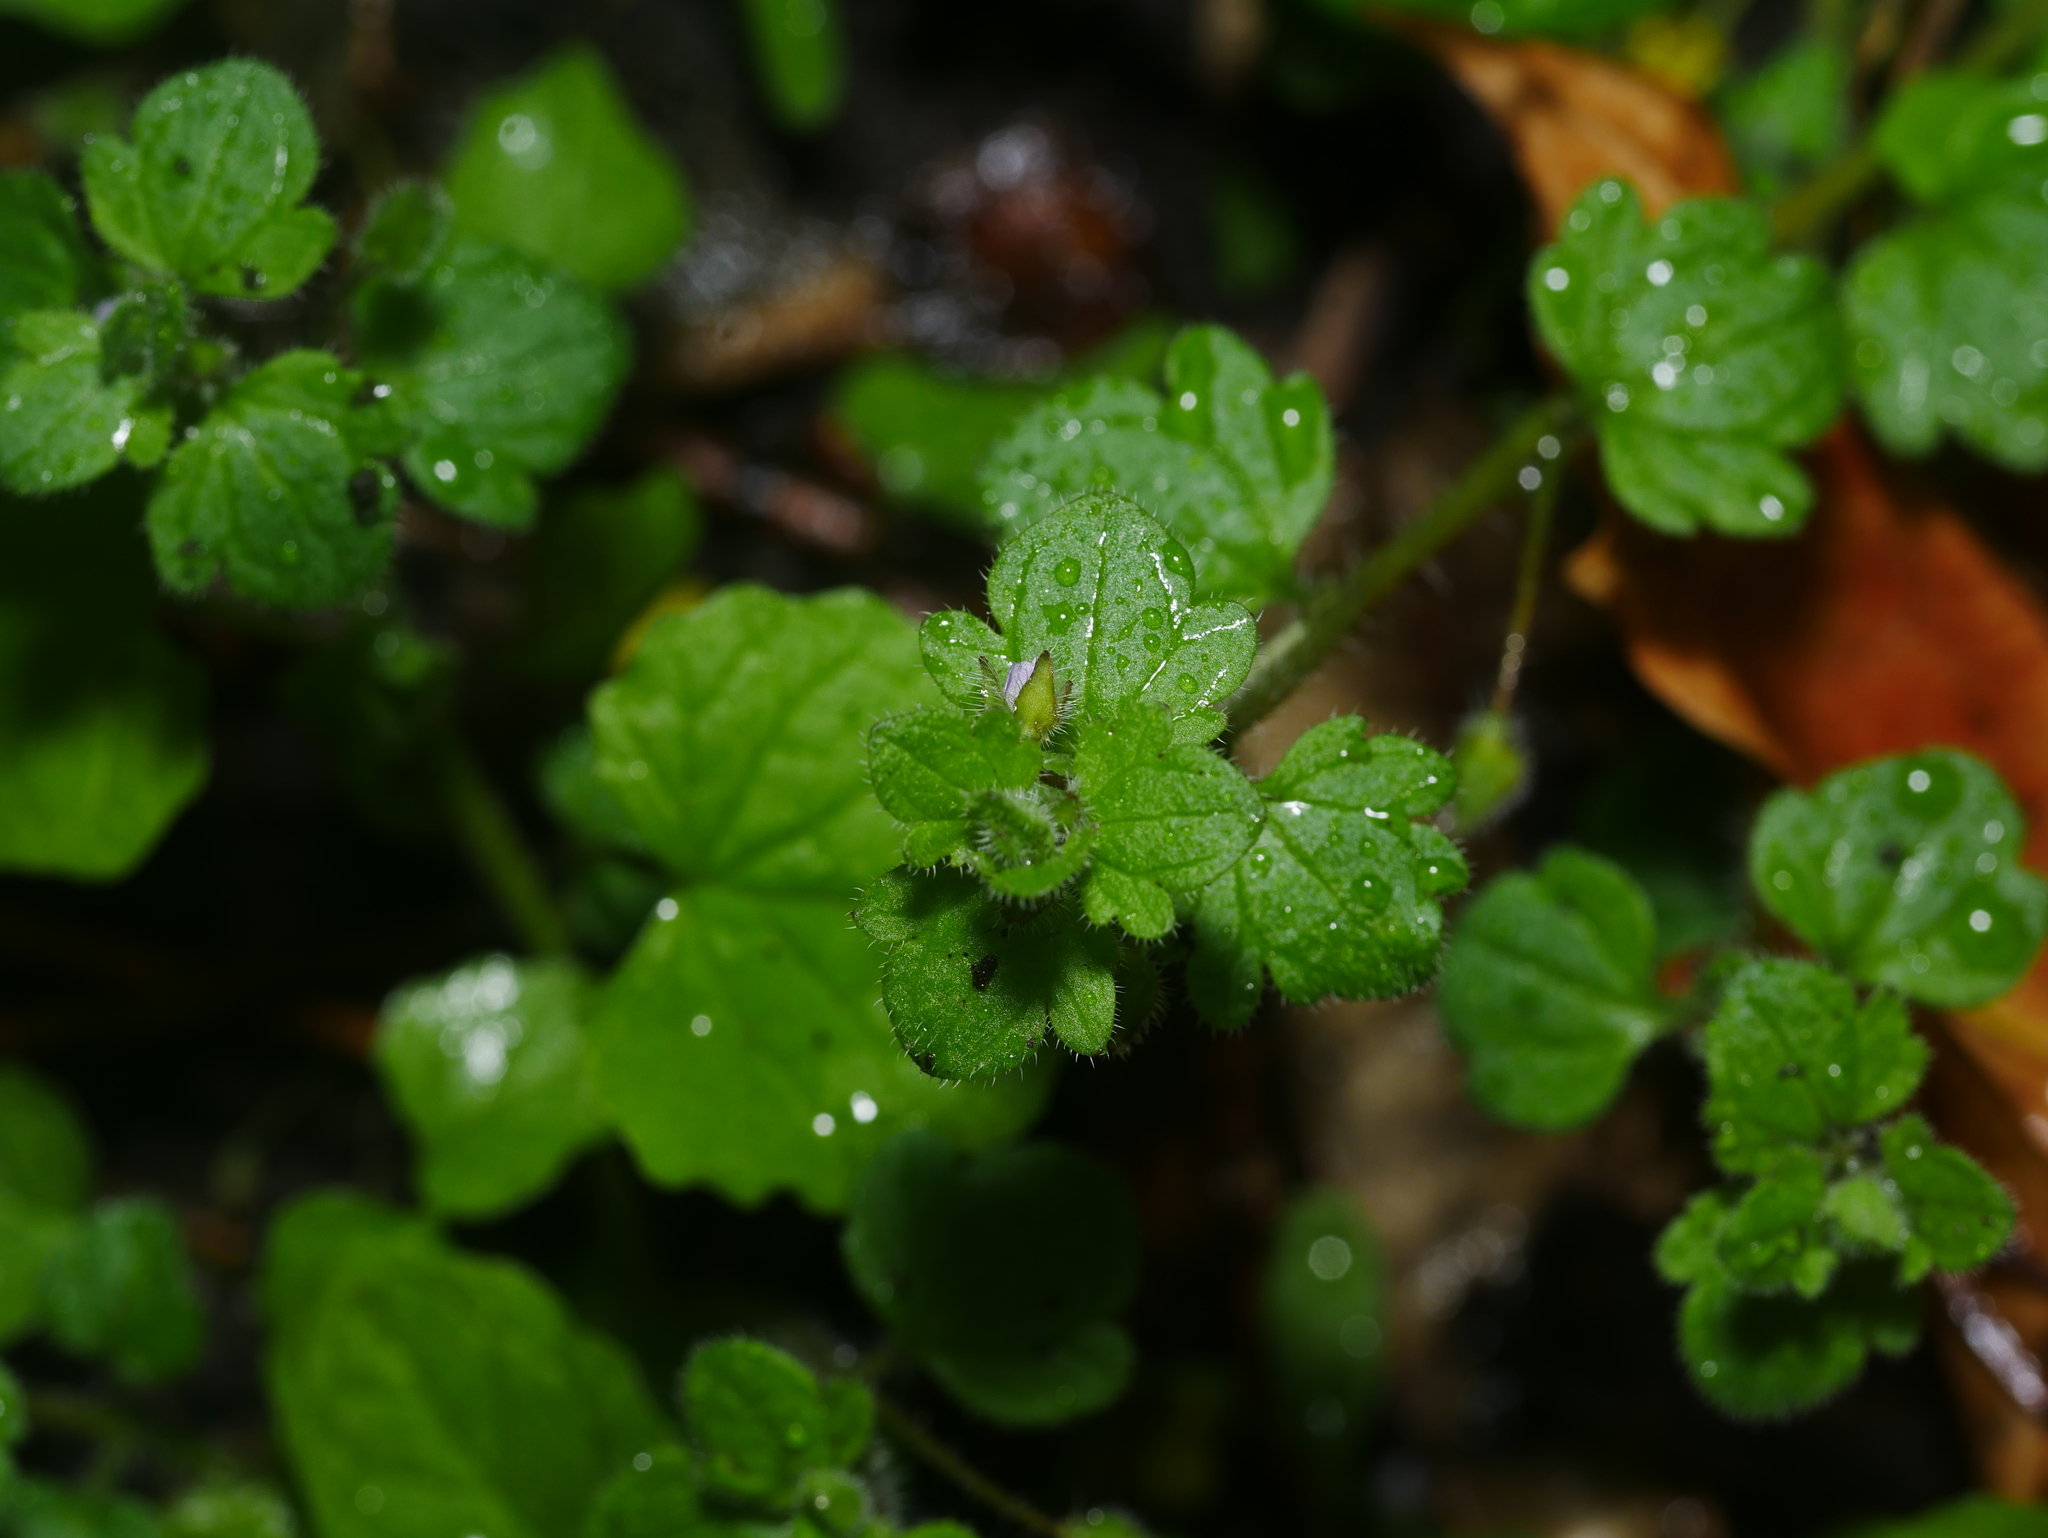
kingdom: Plantae
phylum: Tracheophyta
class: Magnoliopsida
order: Lamiales
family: Plantaginaceae
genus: Veronica
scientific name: Veronica sublobata
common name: False ivy-leaved speedwell
